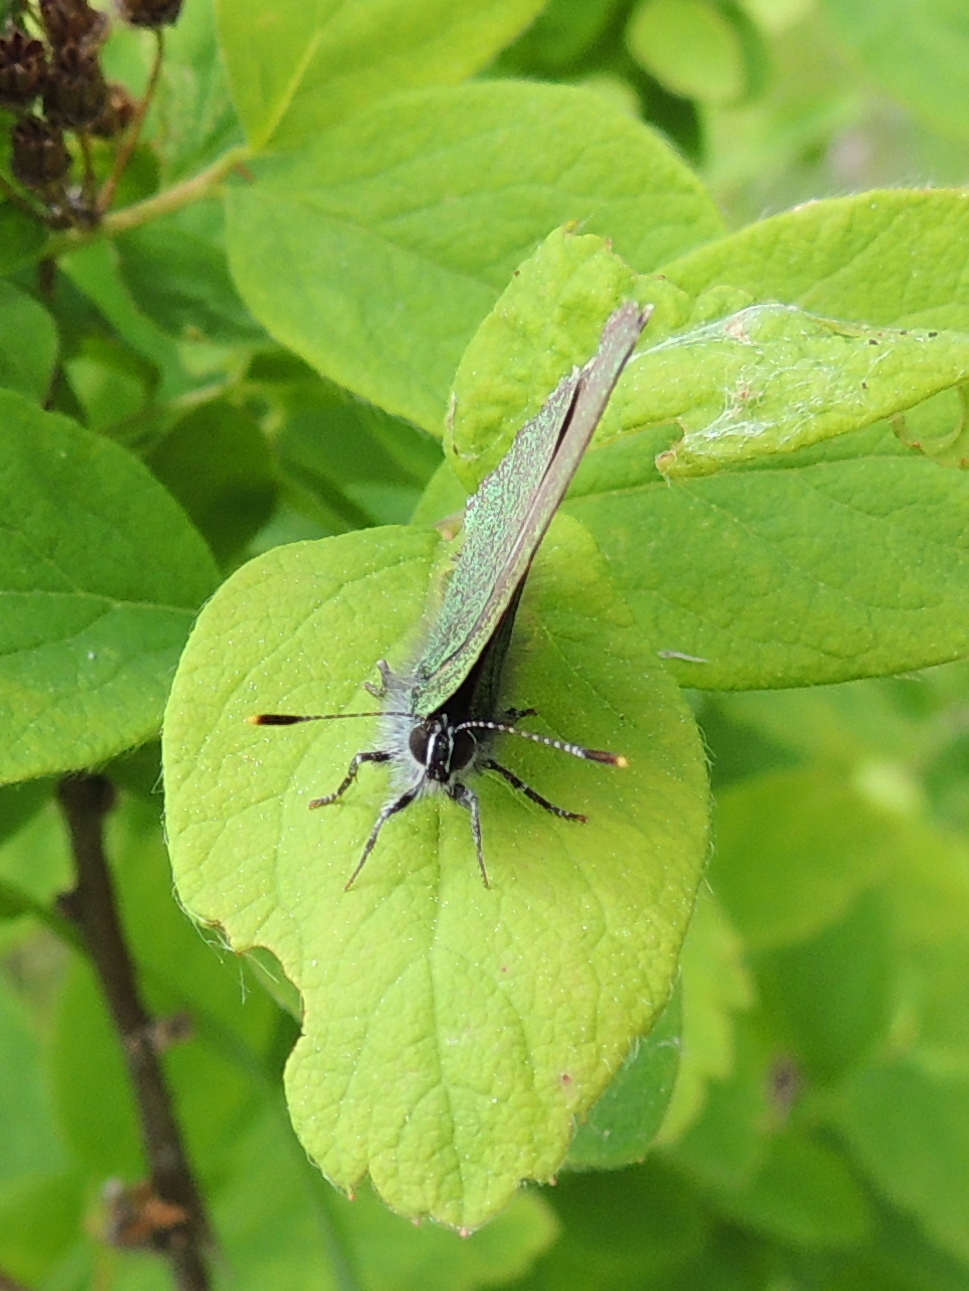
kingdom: Animalia
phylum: Arthropoda
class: Insecta
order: Lepidoptera
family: Lycaenidae
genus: Callophrys
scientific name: Callophrys rubi
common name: Green hairstreak
